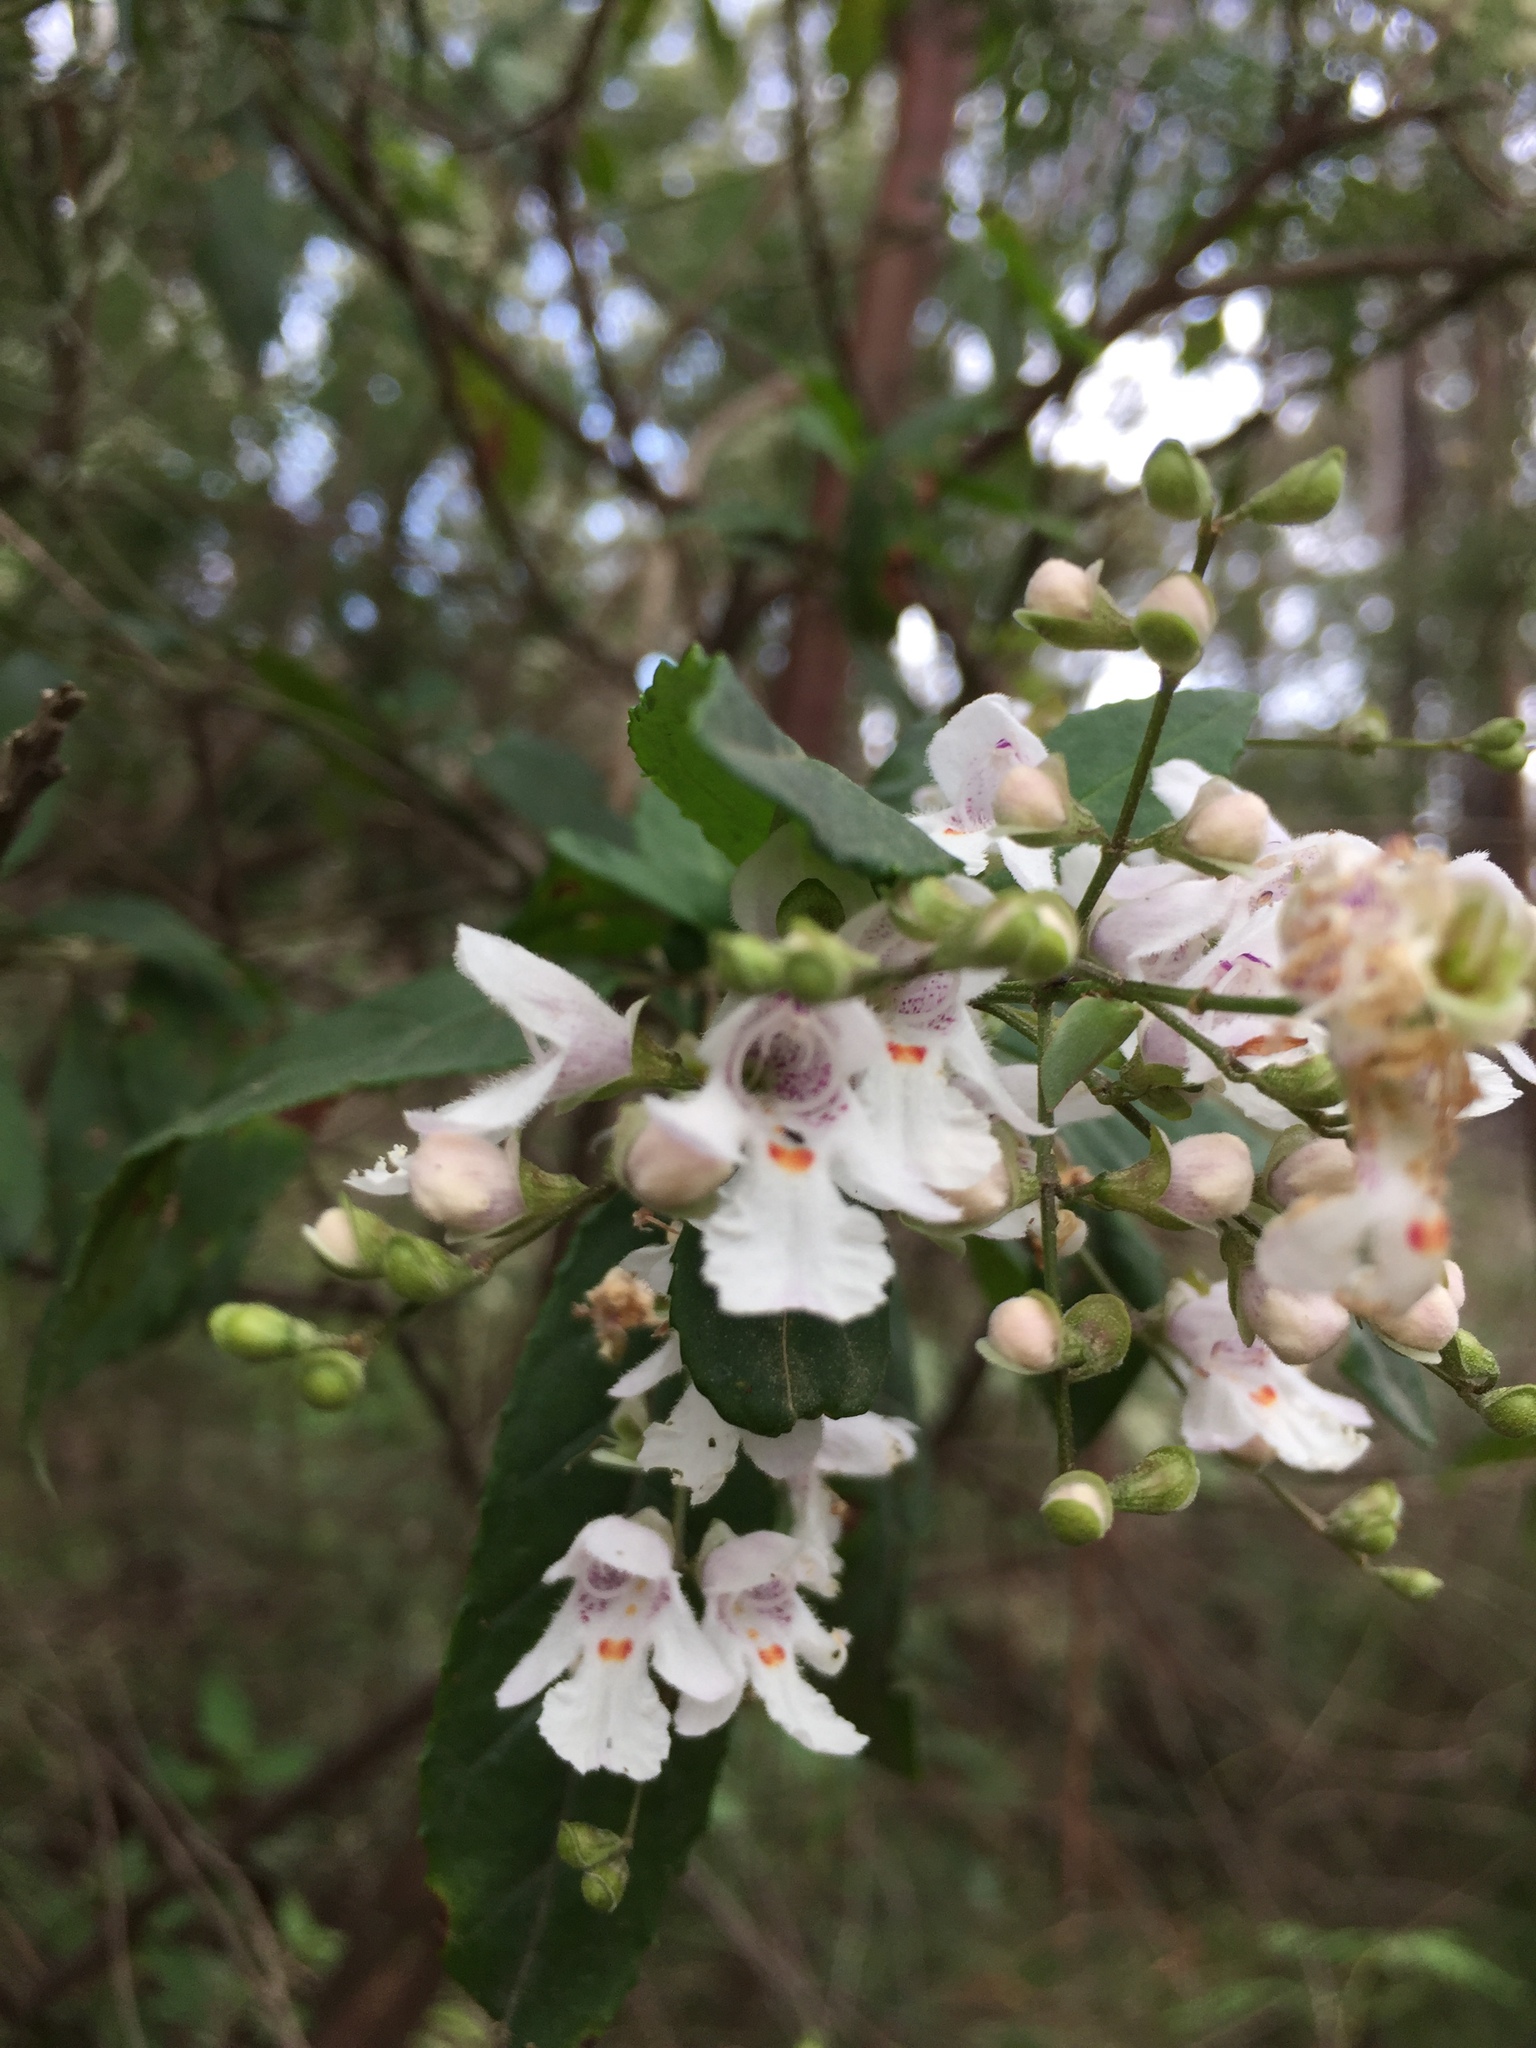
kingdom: Plantae
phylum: Tracheophyta
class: Magnoliopsida
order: Lamiales
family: Lamiaceae
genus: Prostanthera
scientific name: Prostanthera lasianthos
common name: Mountain-lilac
